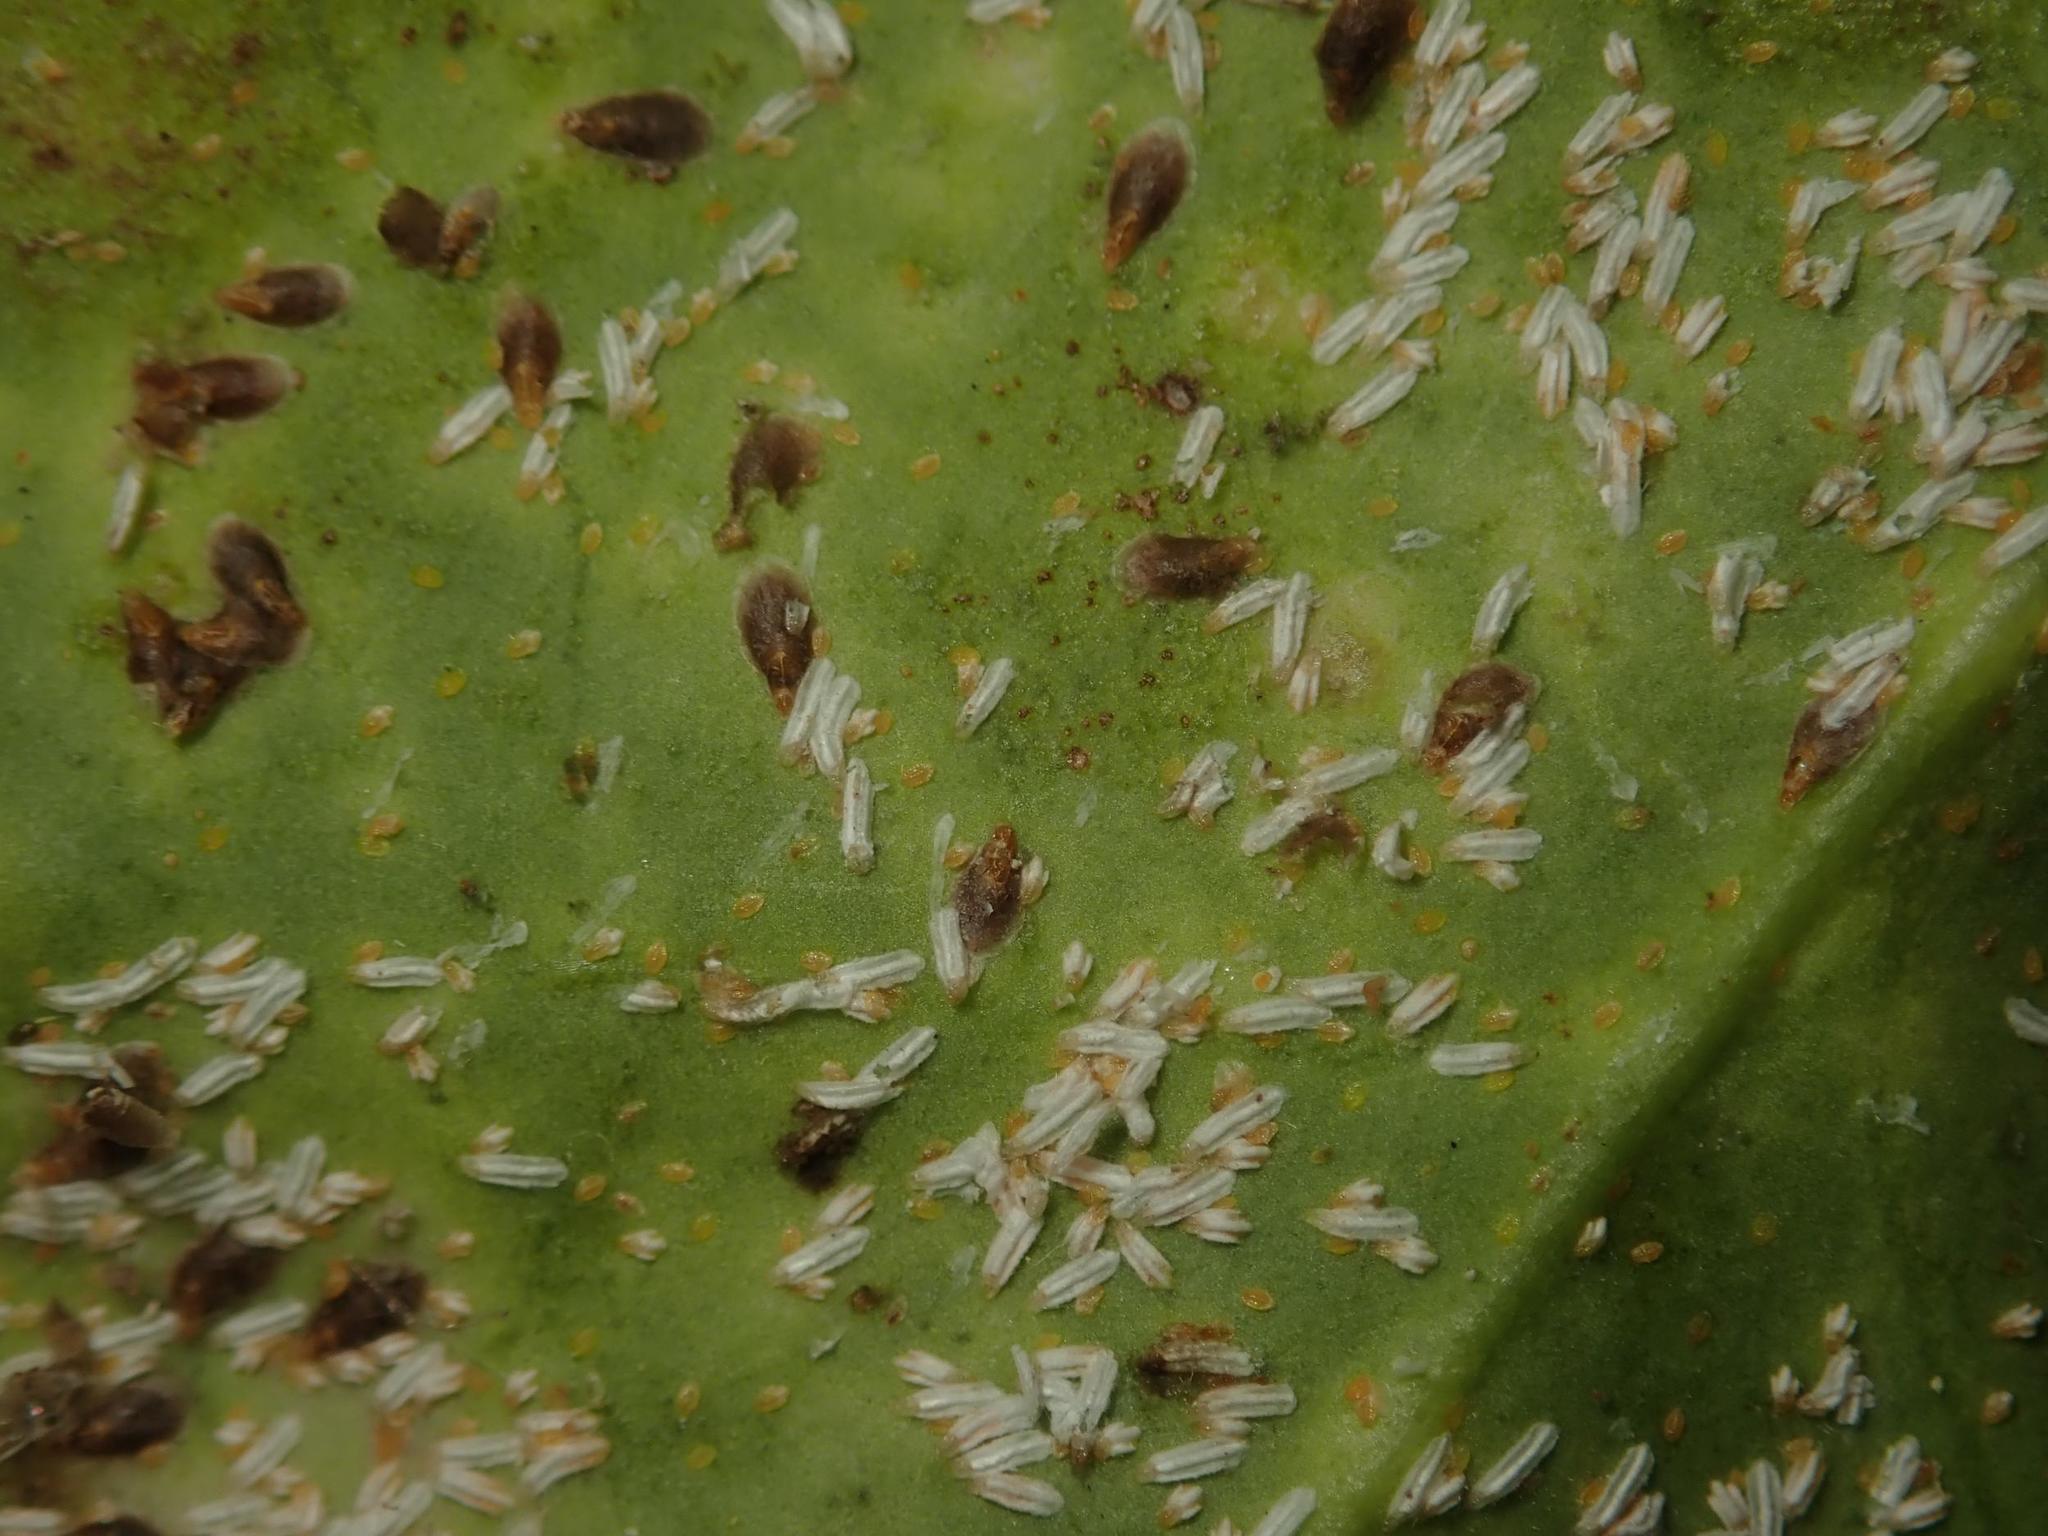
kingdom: Animalia
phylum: Arthropoda
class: Insecta
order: Hemiptera
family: Diaspididae
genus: Unaspis
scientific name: Unaspis euonymi
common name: Euonymus scale
